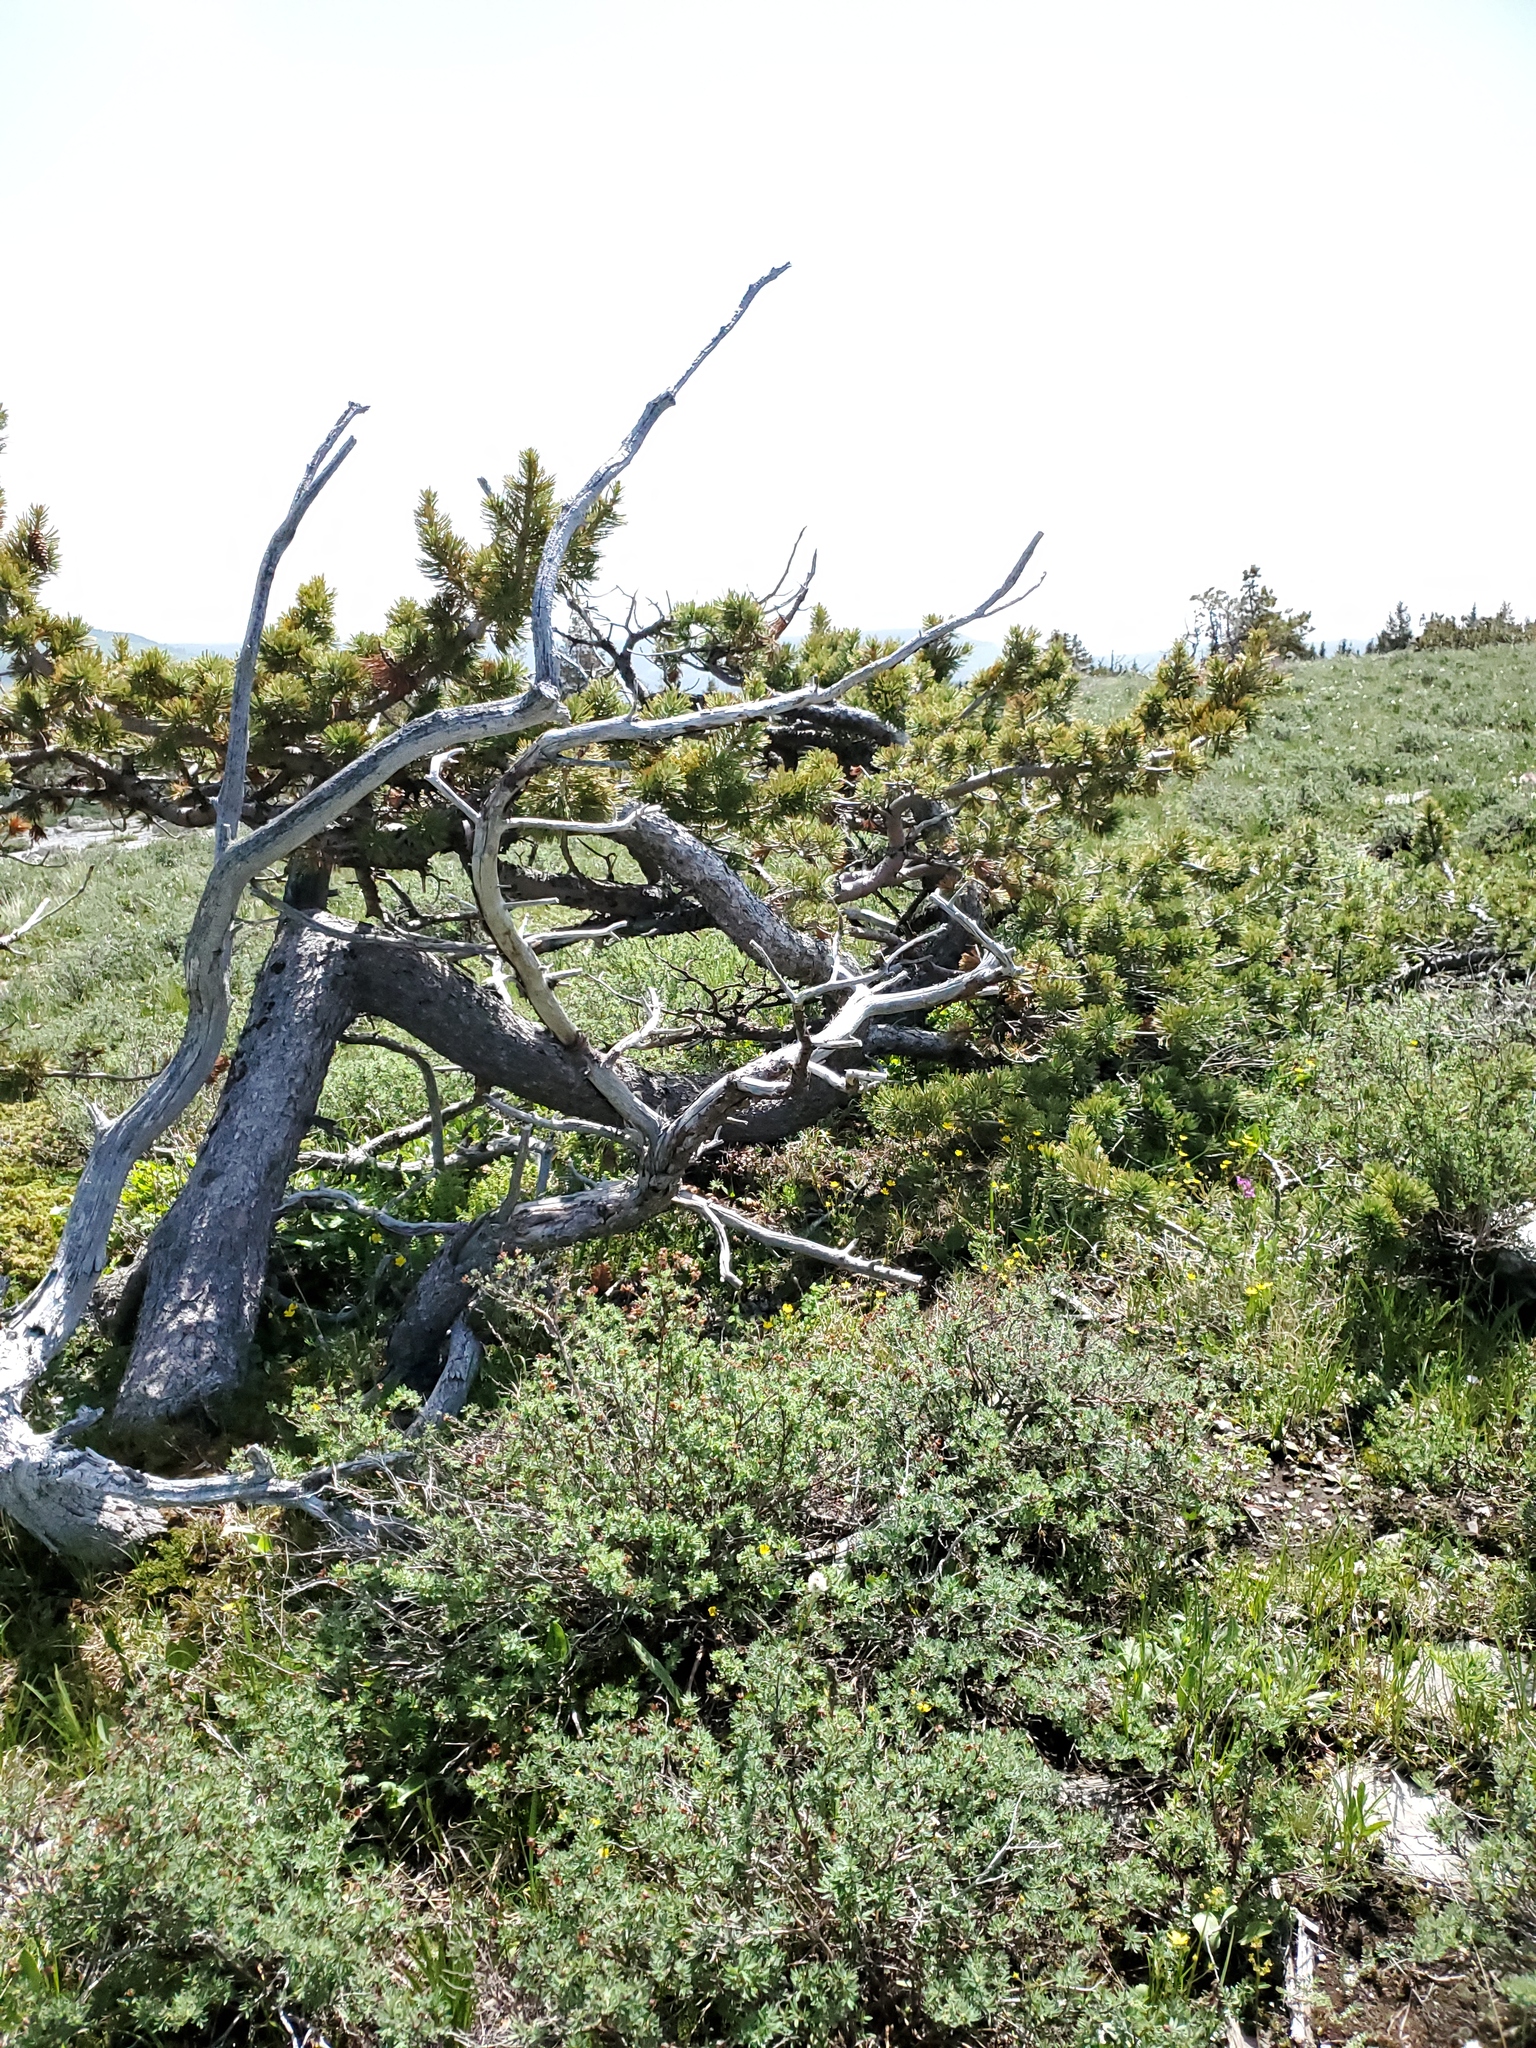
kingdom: Plantae
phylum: Tracheophyta
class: Pinopsida
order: Pinales
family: Pinaceae
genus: Pinus
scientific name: Pinus flexilis
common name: Limber pine
